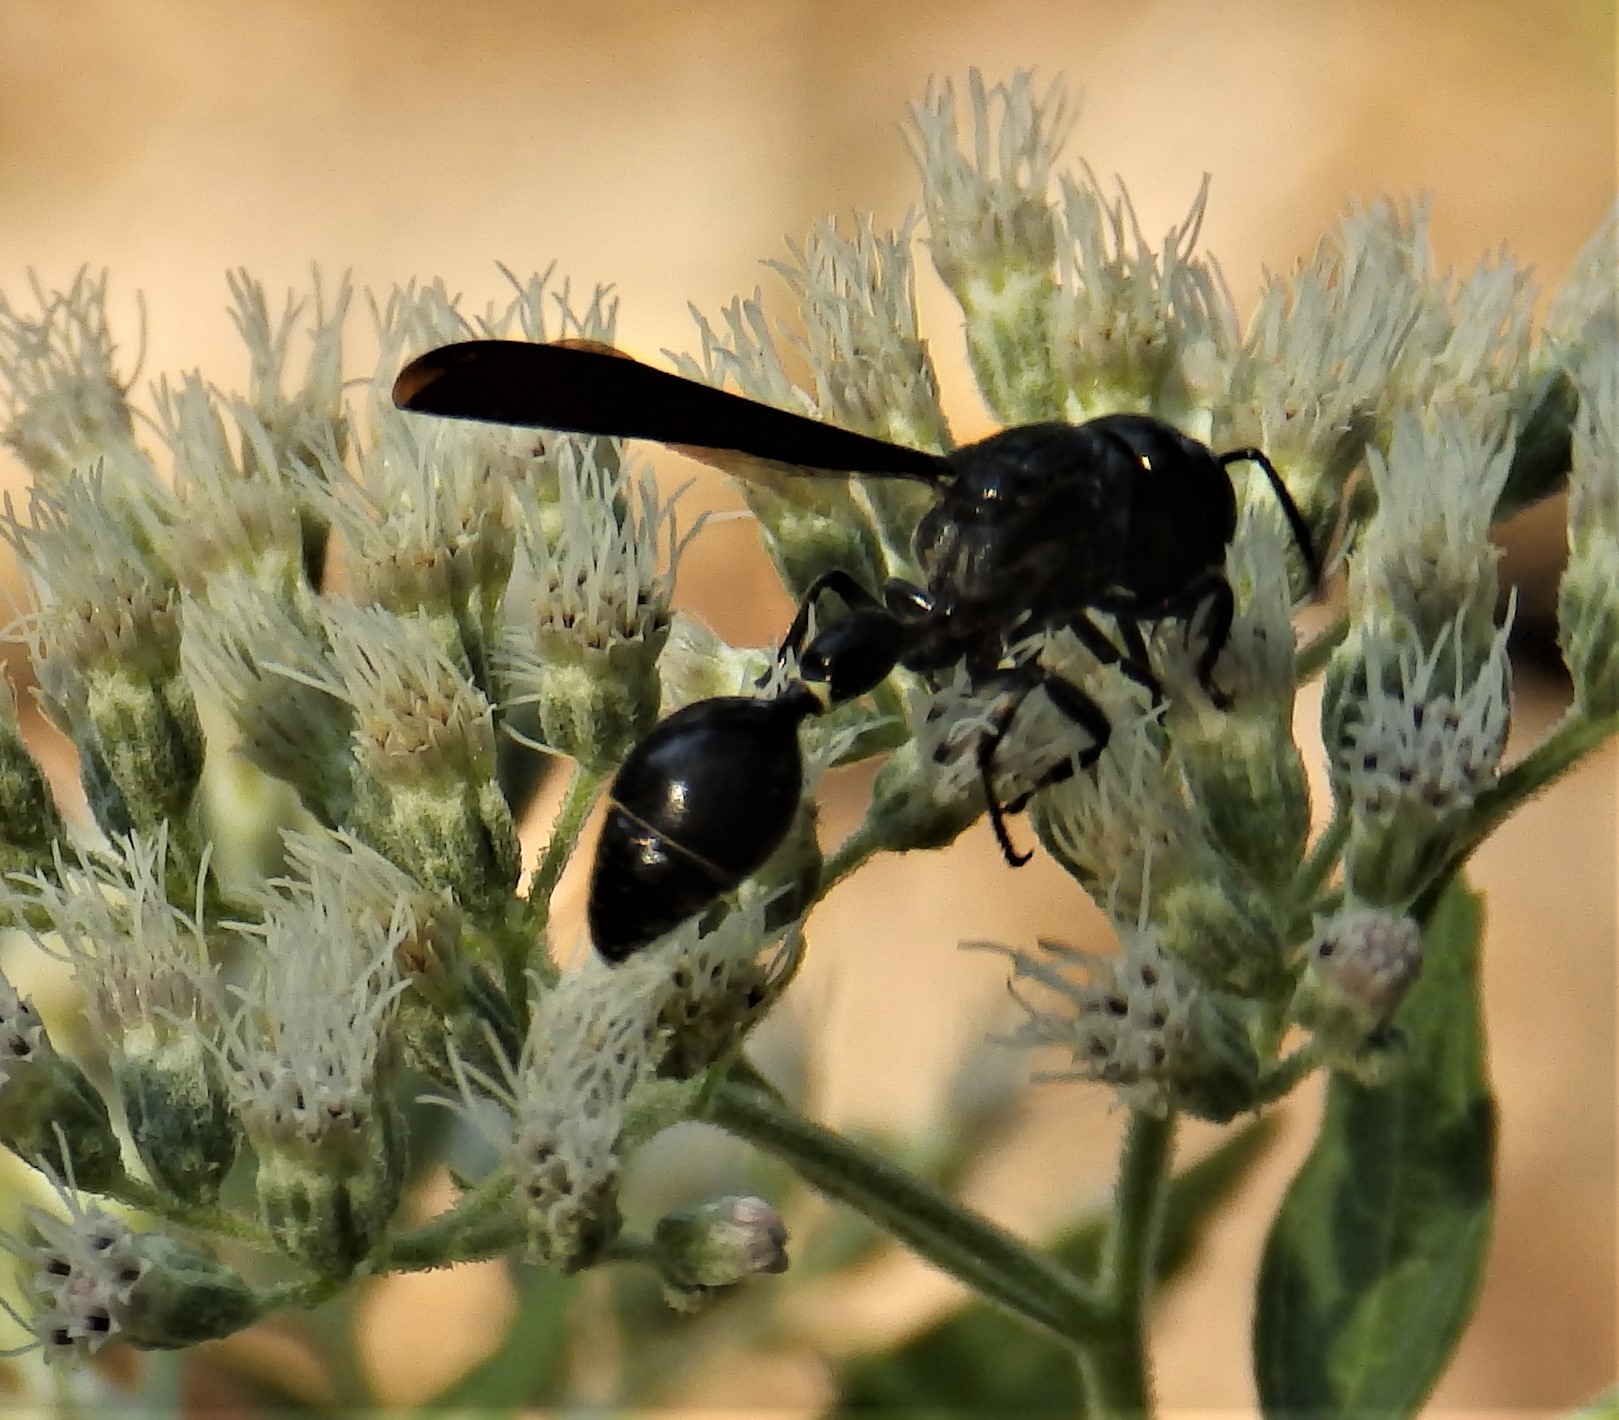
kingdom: Animalia
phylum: Arthropoda
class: Insecta
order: Hymenoptera
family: Eumenidae
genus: Zethus
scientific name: Zethus spinipes
